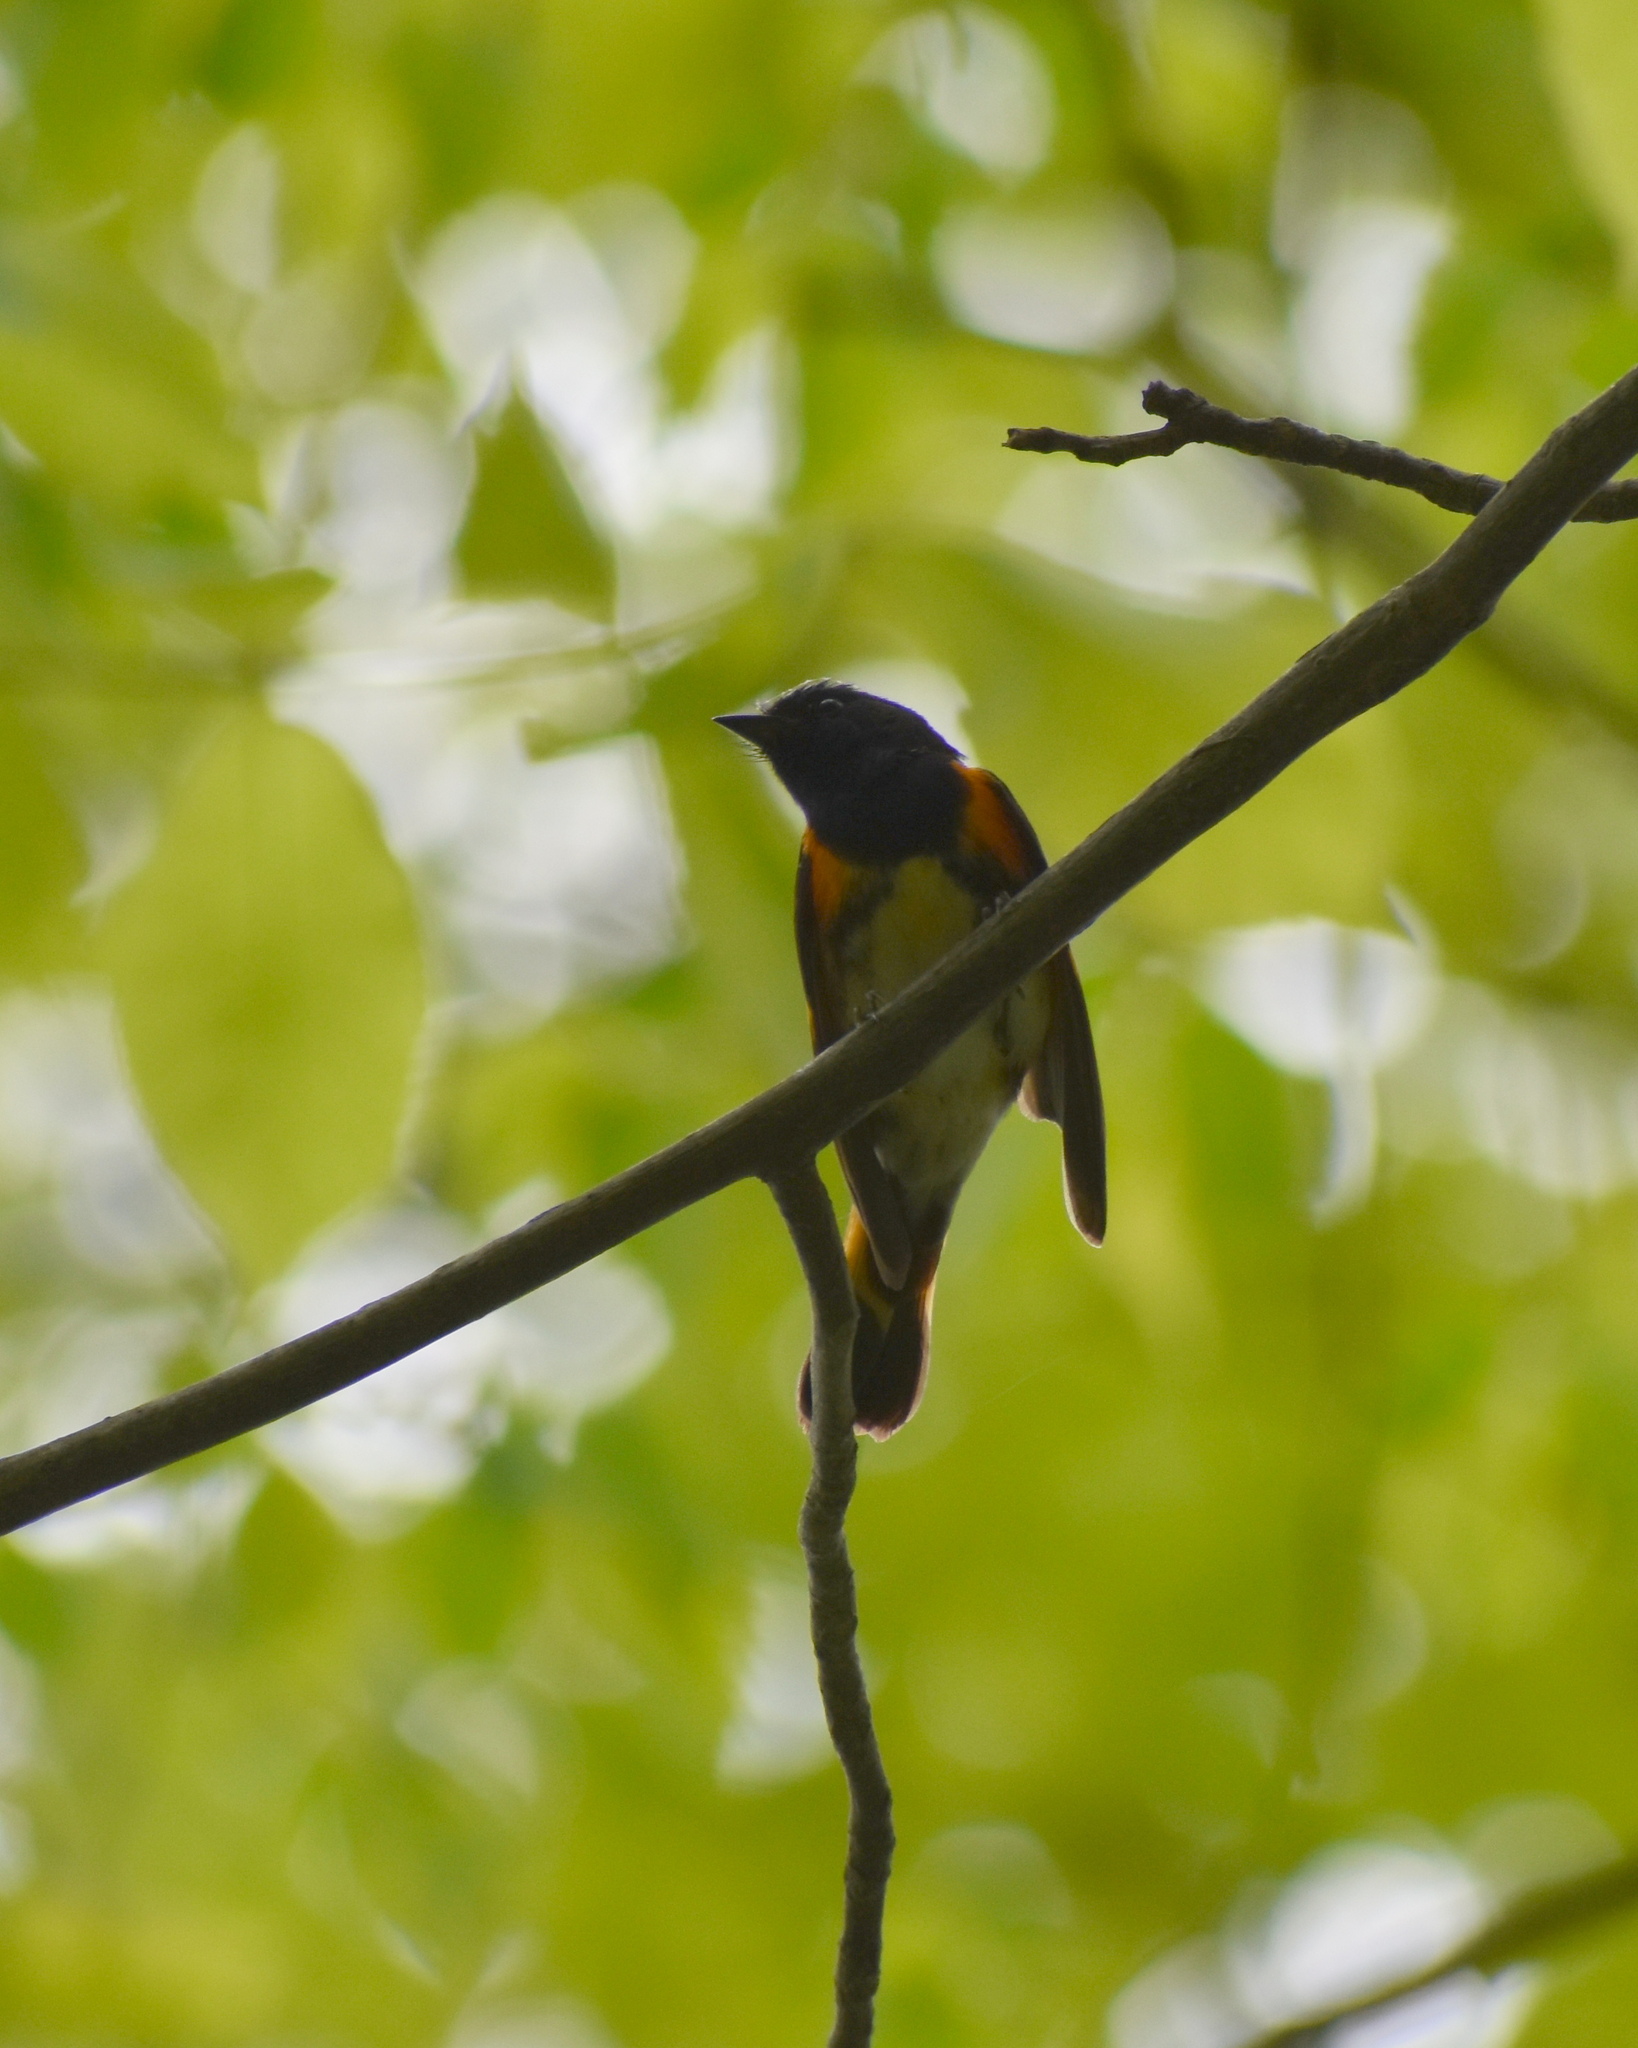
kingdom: Animalia
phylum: Chordata
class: Aves
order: Passeriformes
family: Parulidae
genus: Setophaga
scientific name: Setophaga ruticilla
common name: American redstart
